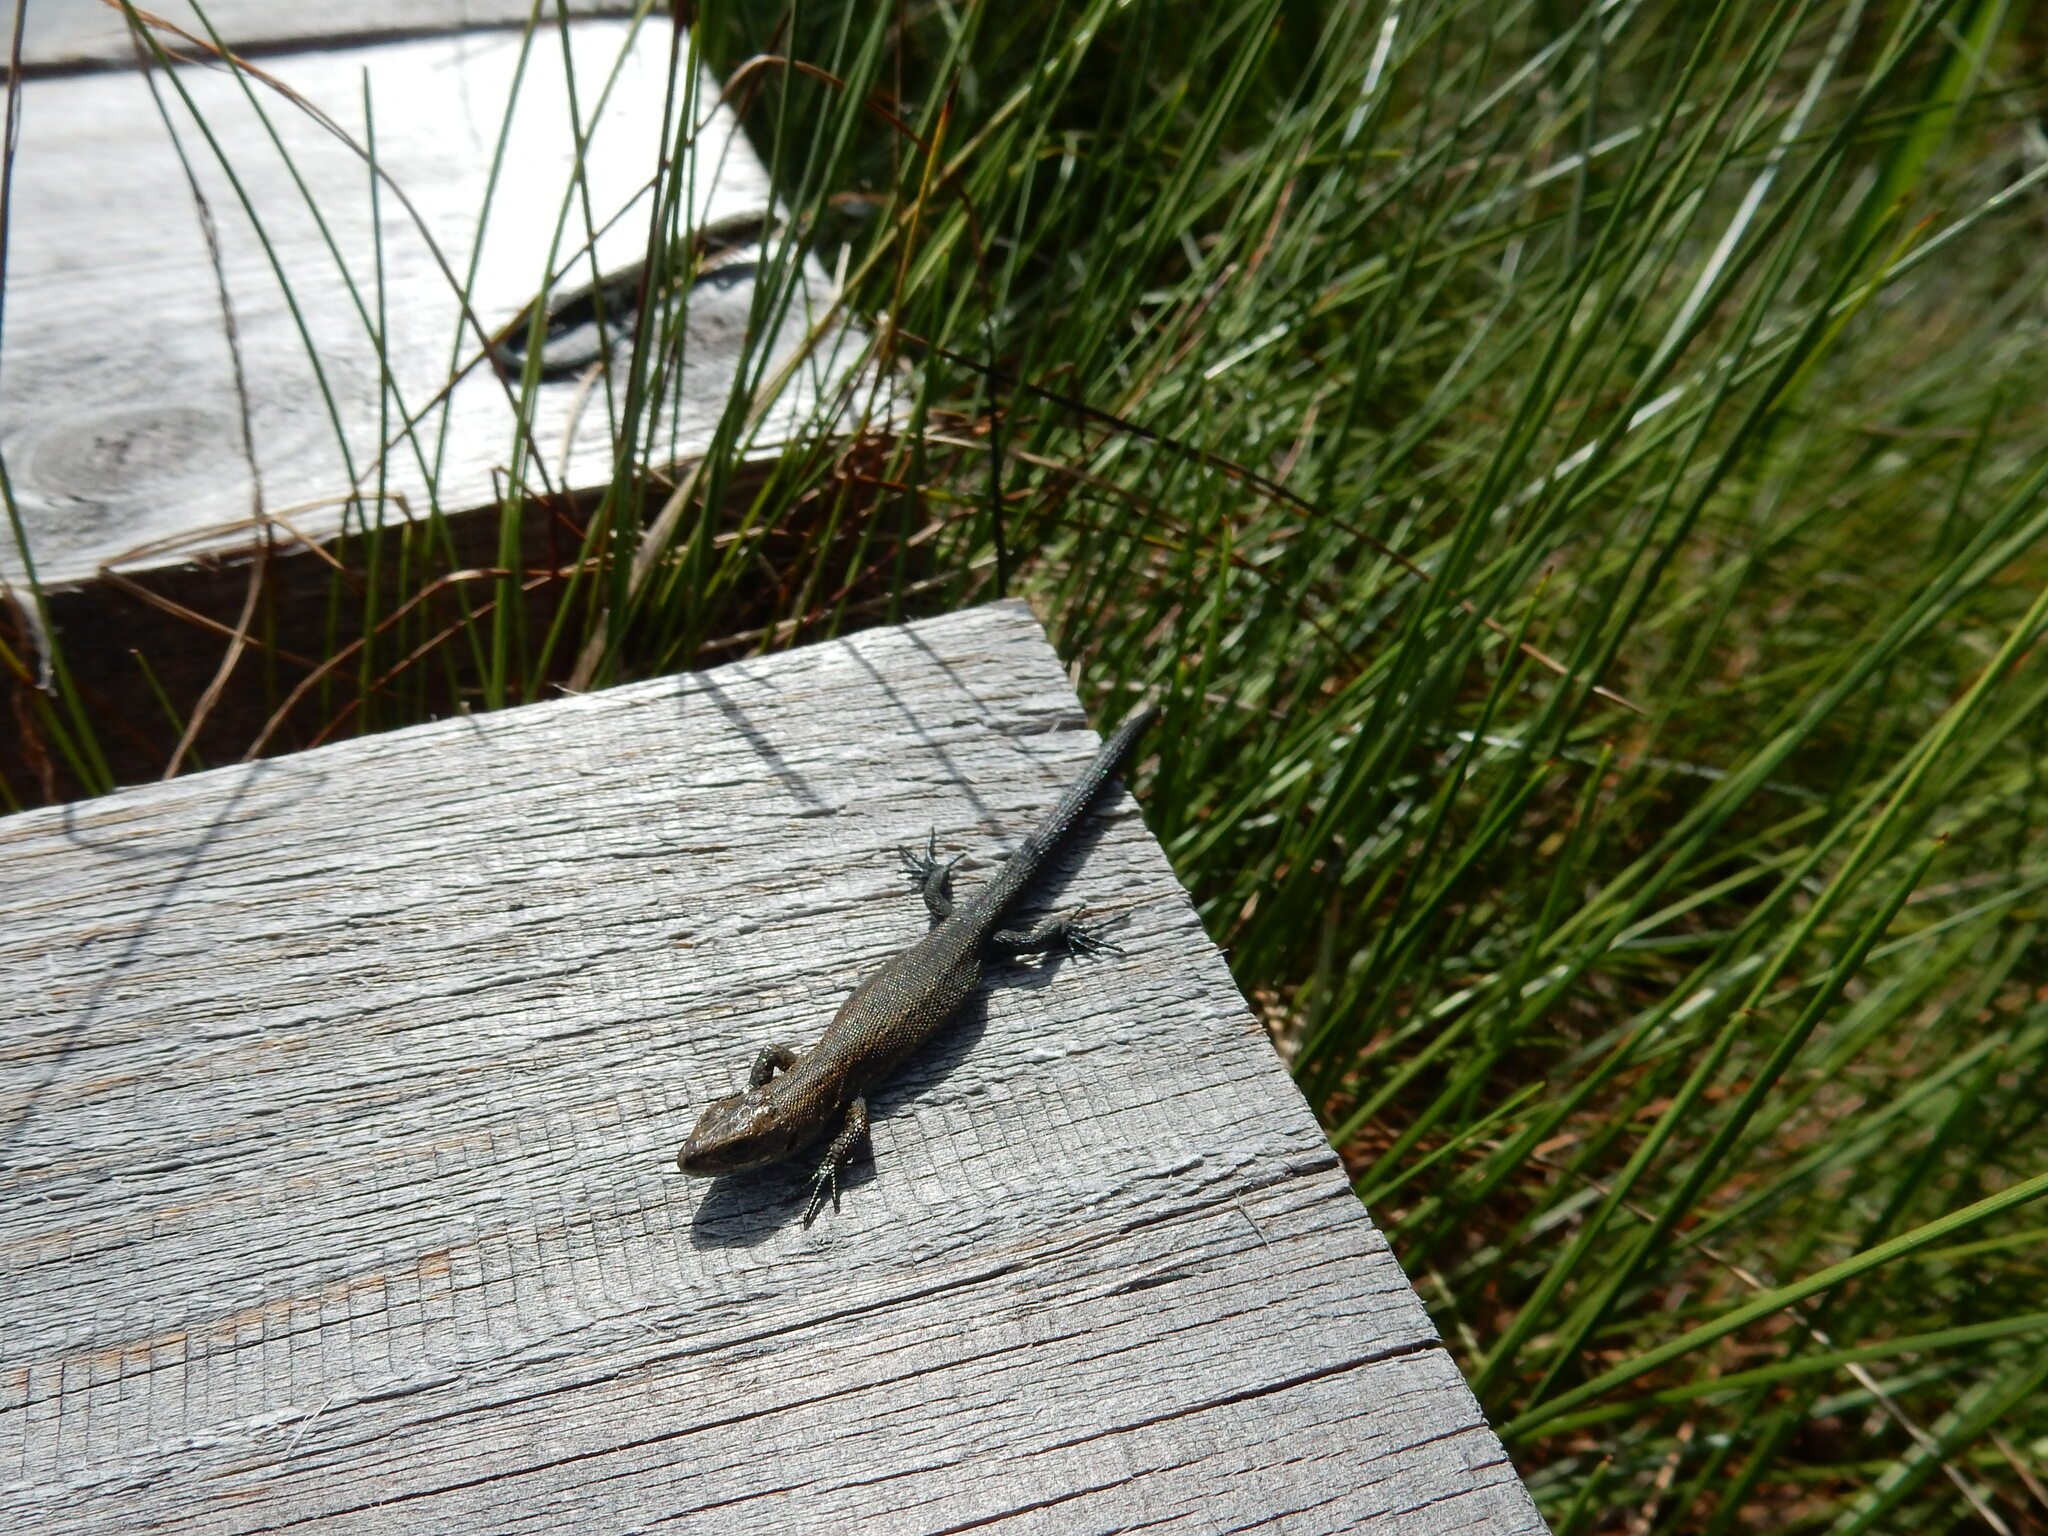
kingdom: Animalia
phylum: Chordata
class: Squamata
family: Lacertidae
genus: Zootoca
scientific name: Zootoca vivipara
